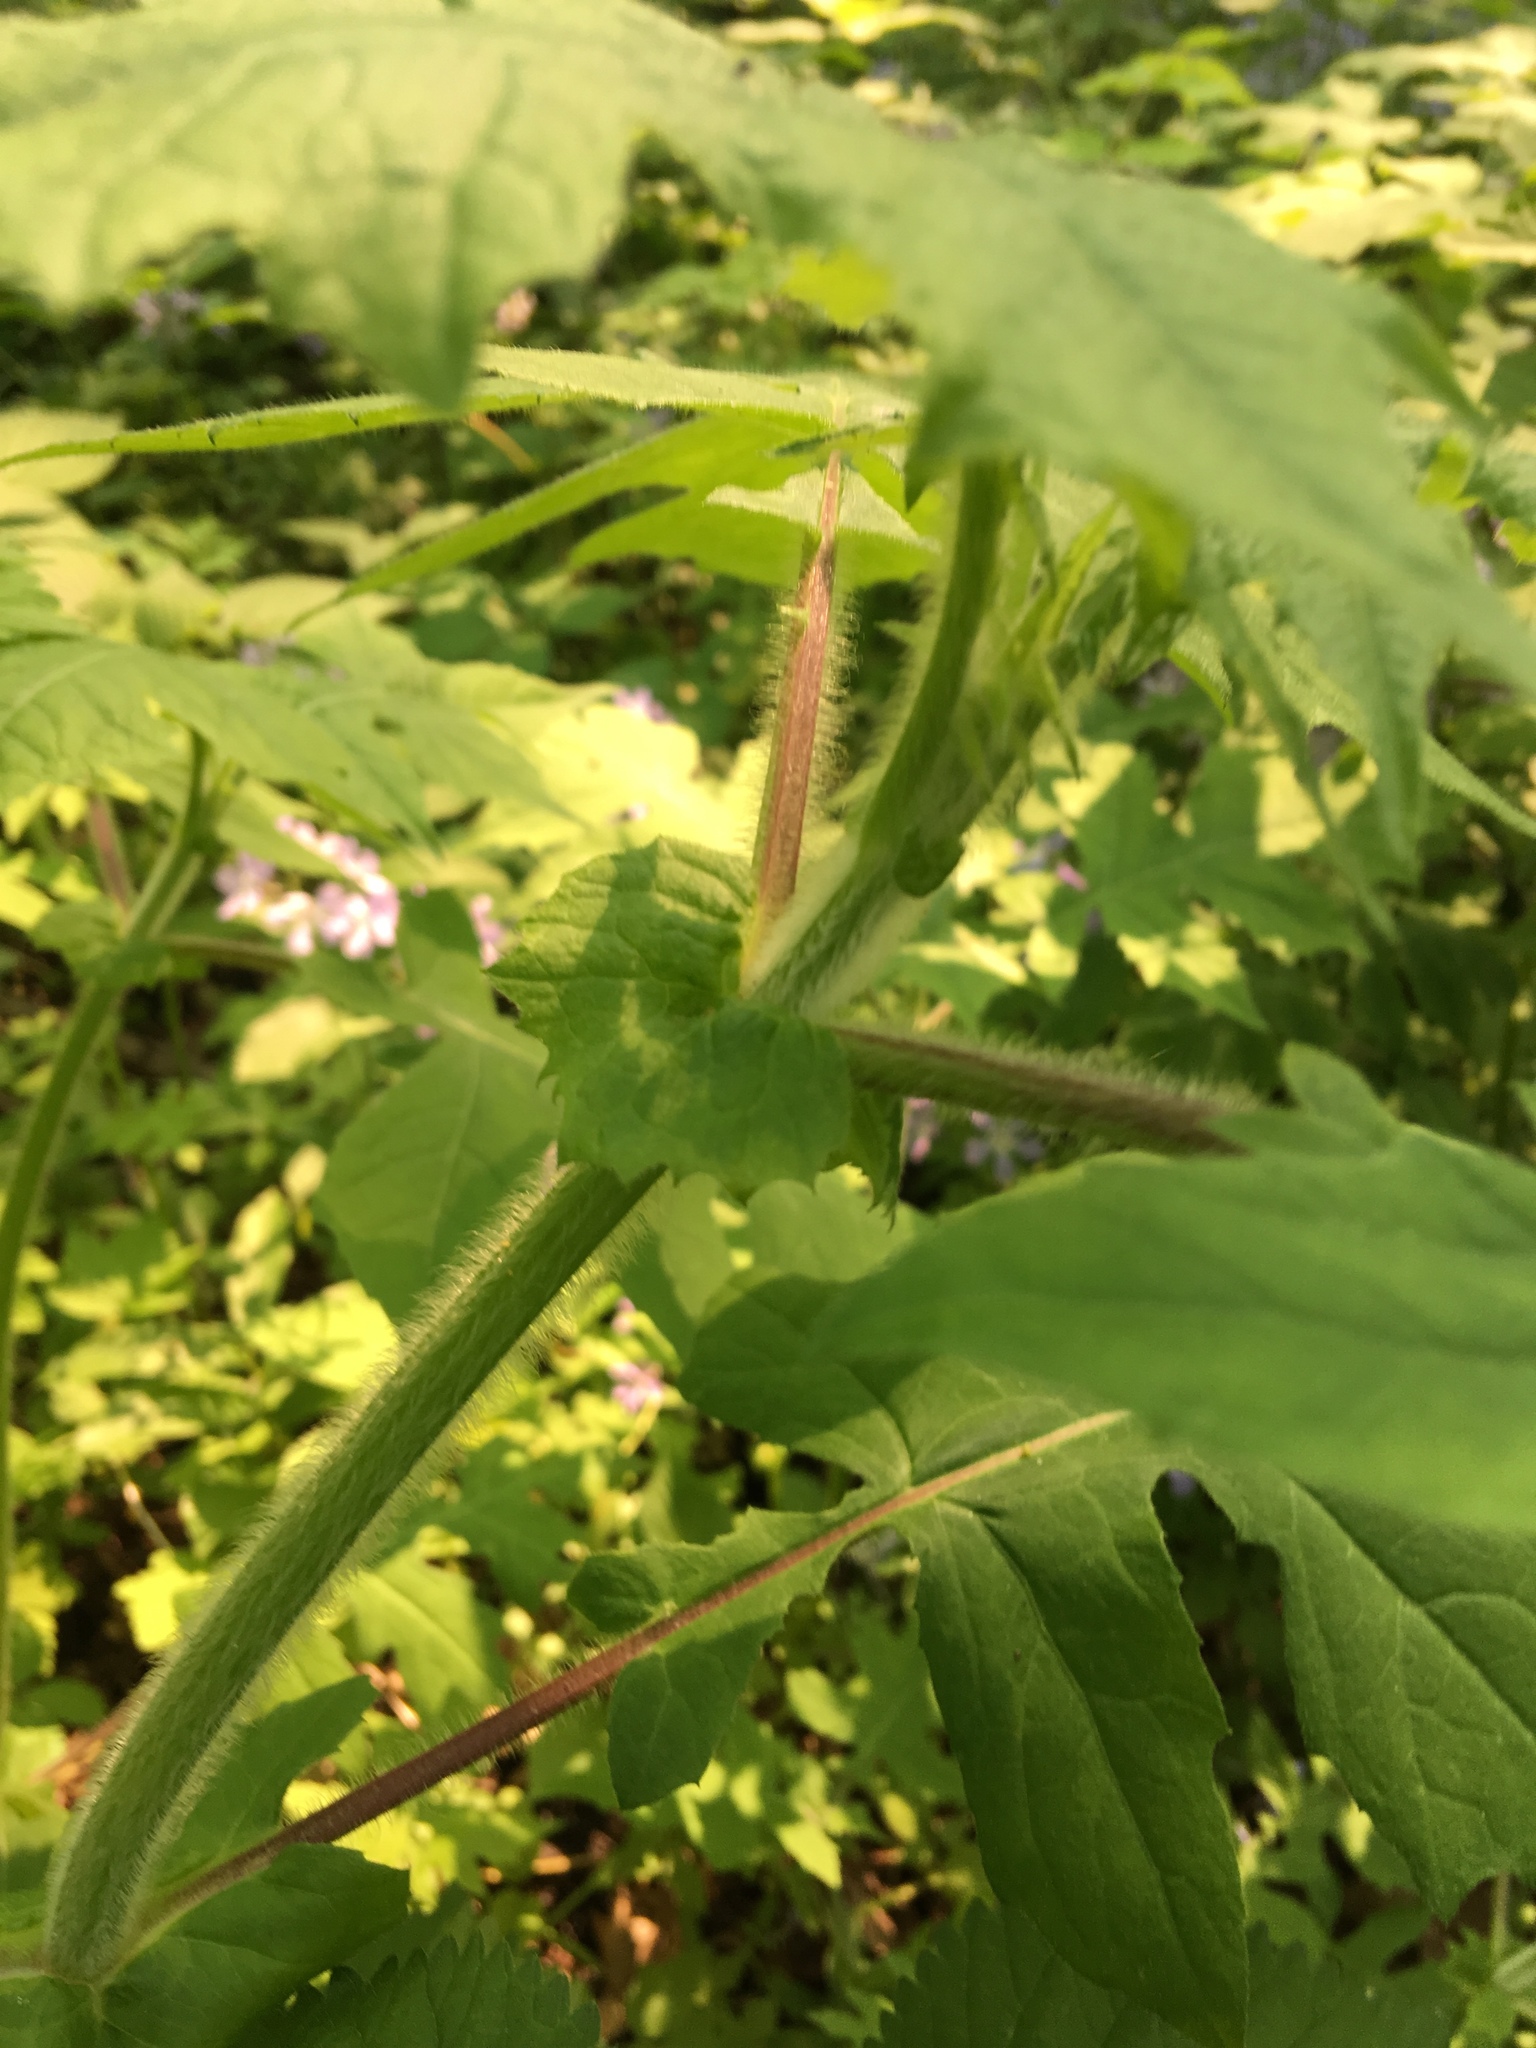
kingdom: Plantae
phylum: Tracheophyta
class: Magnoliopsida
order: Asterales
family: Asteraceae
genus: Polymnia
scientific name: Polymnia canadensis
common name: Pale-flowered leafcup
